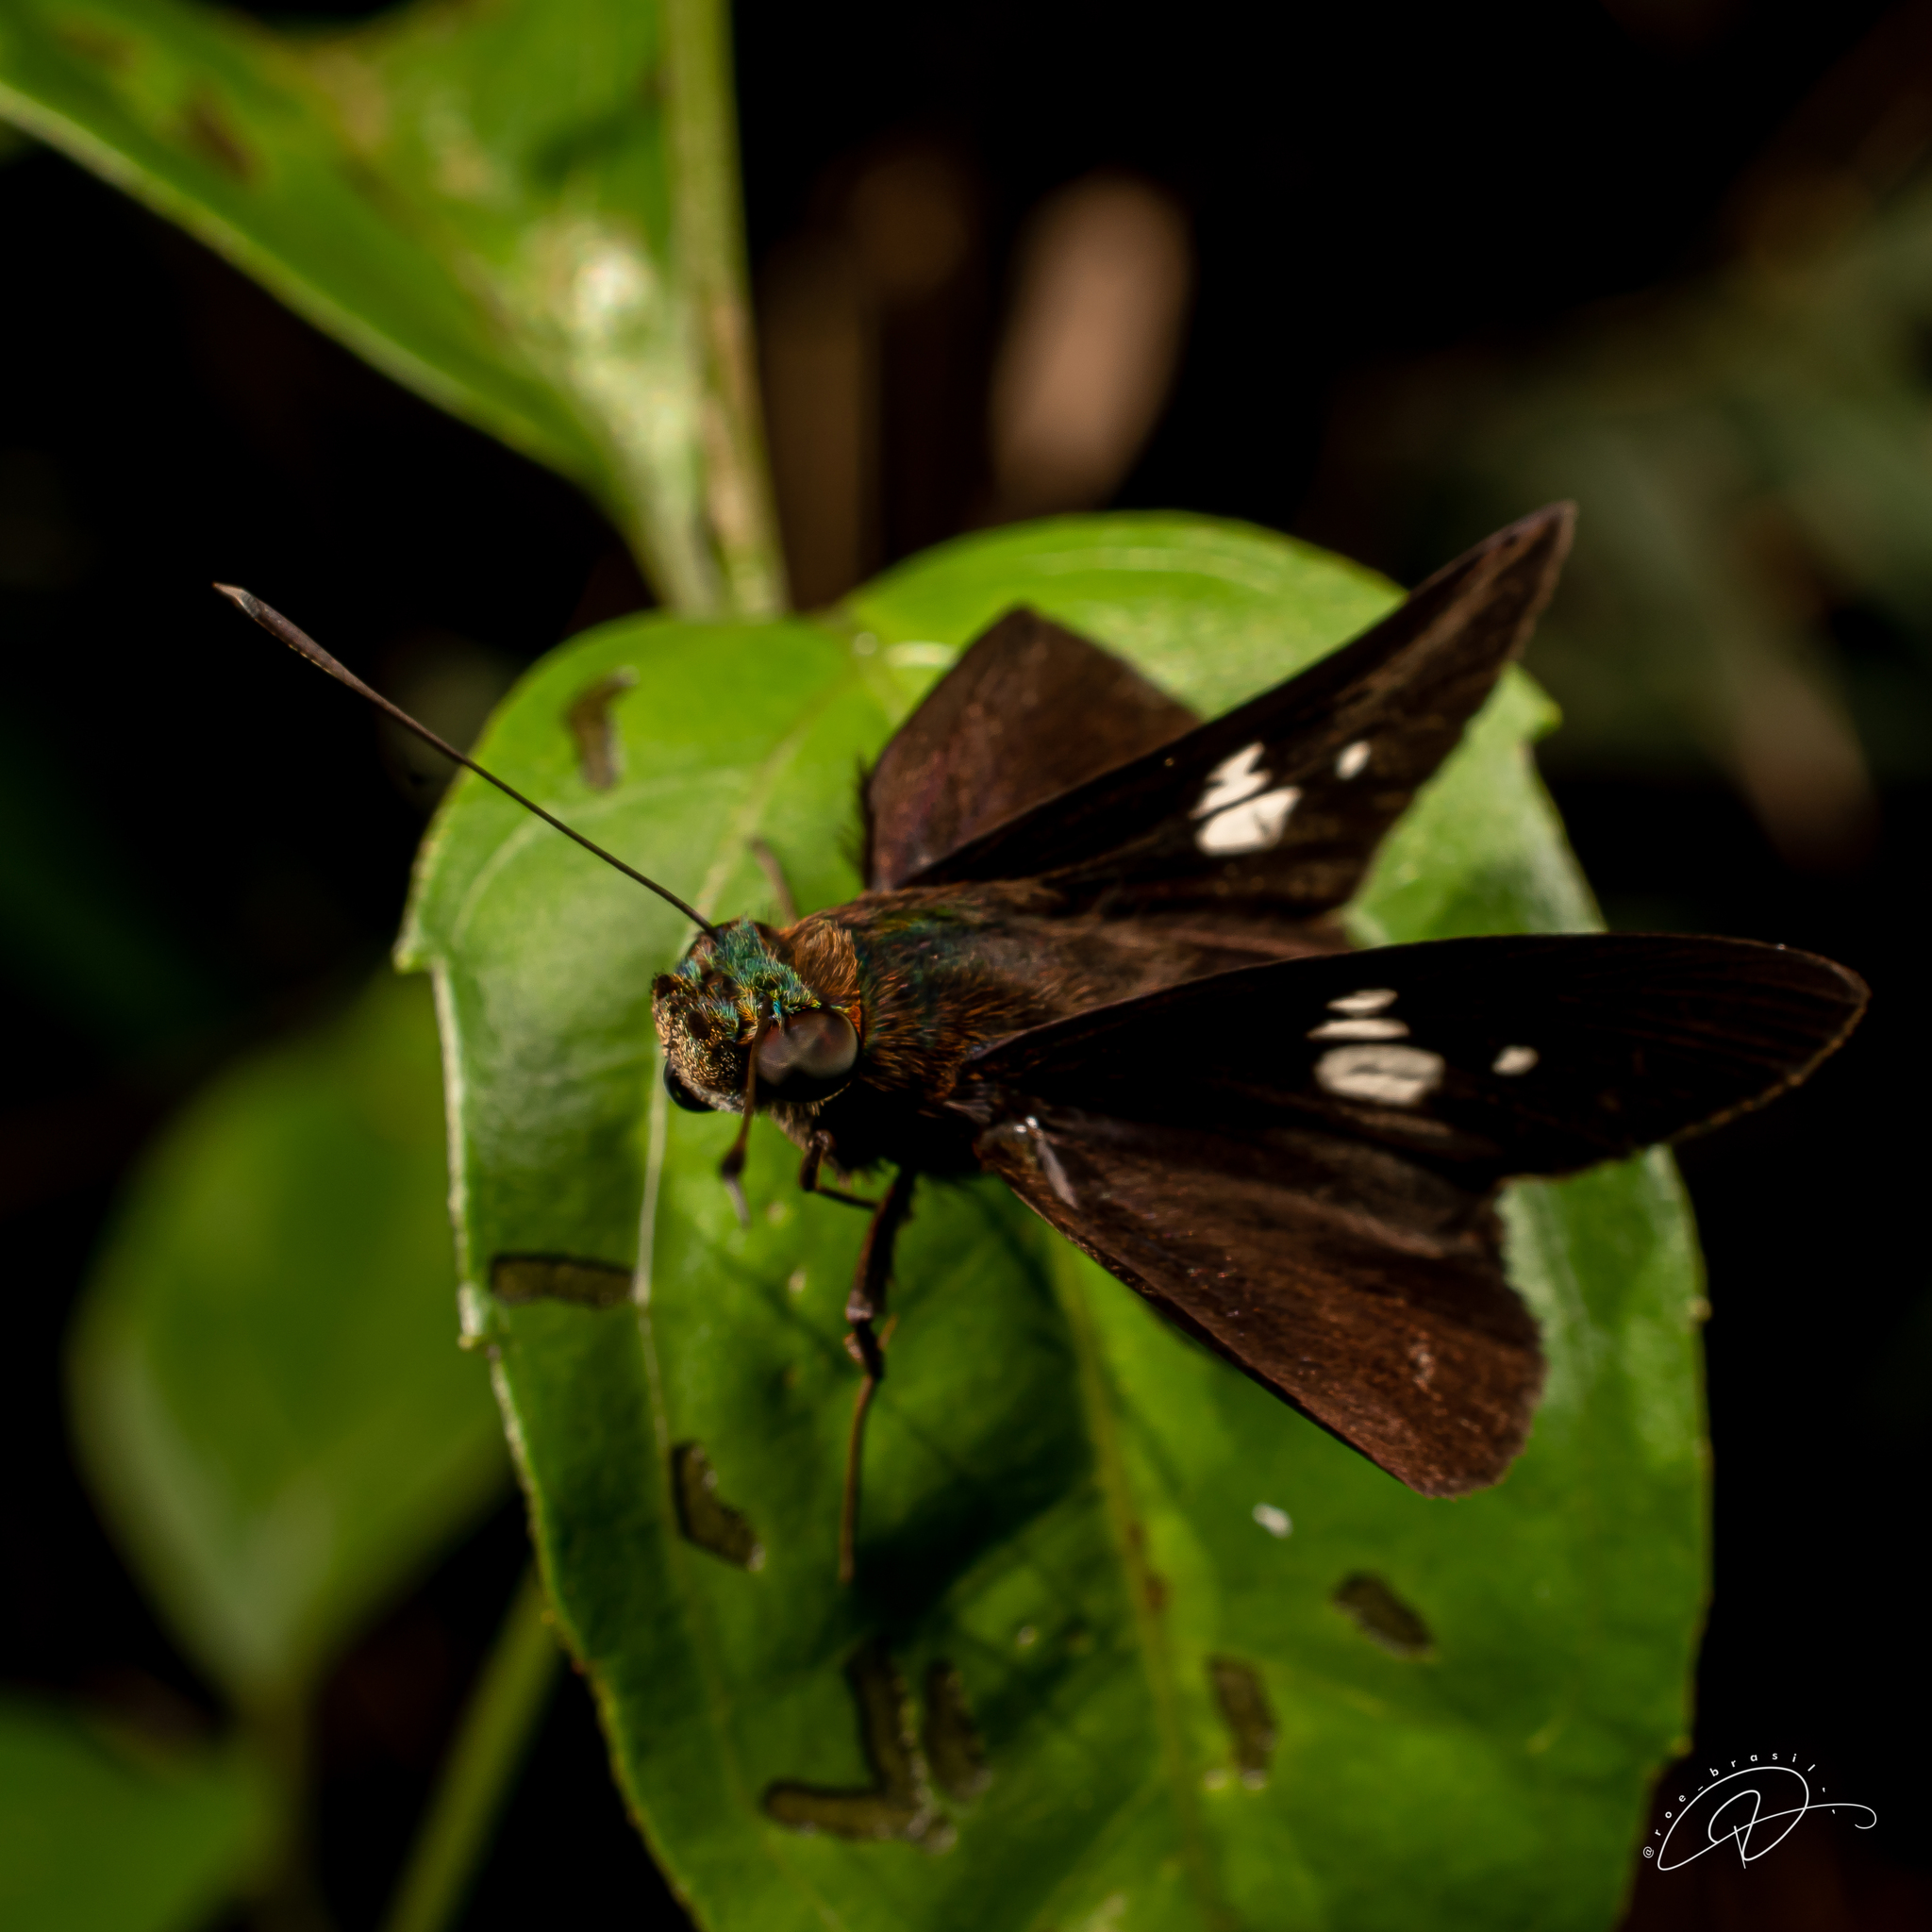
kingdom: Animalia
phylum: Arthropoda
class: Insecta
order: Lepidoptera
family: Hesperiidae
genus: Cynea
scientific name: Cynea trimaculata
